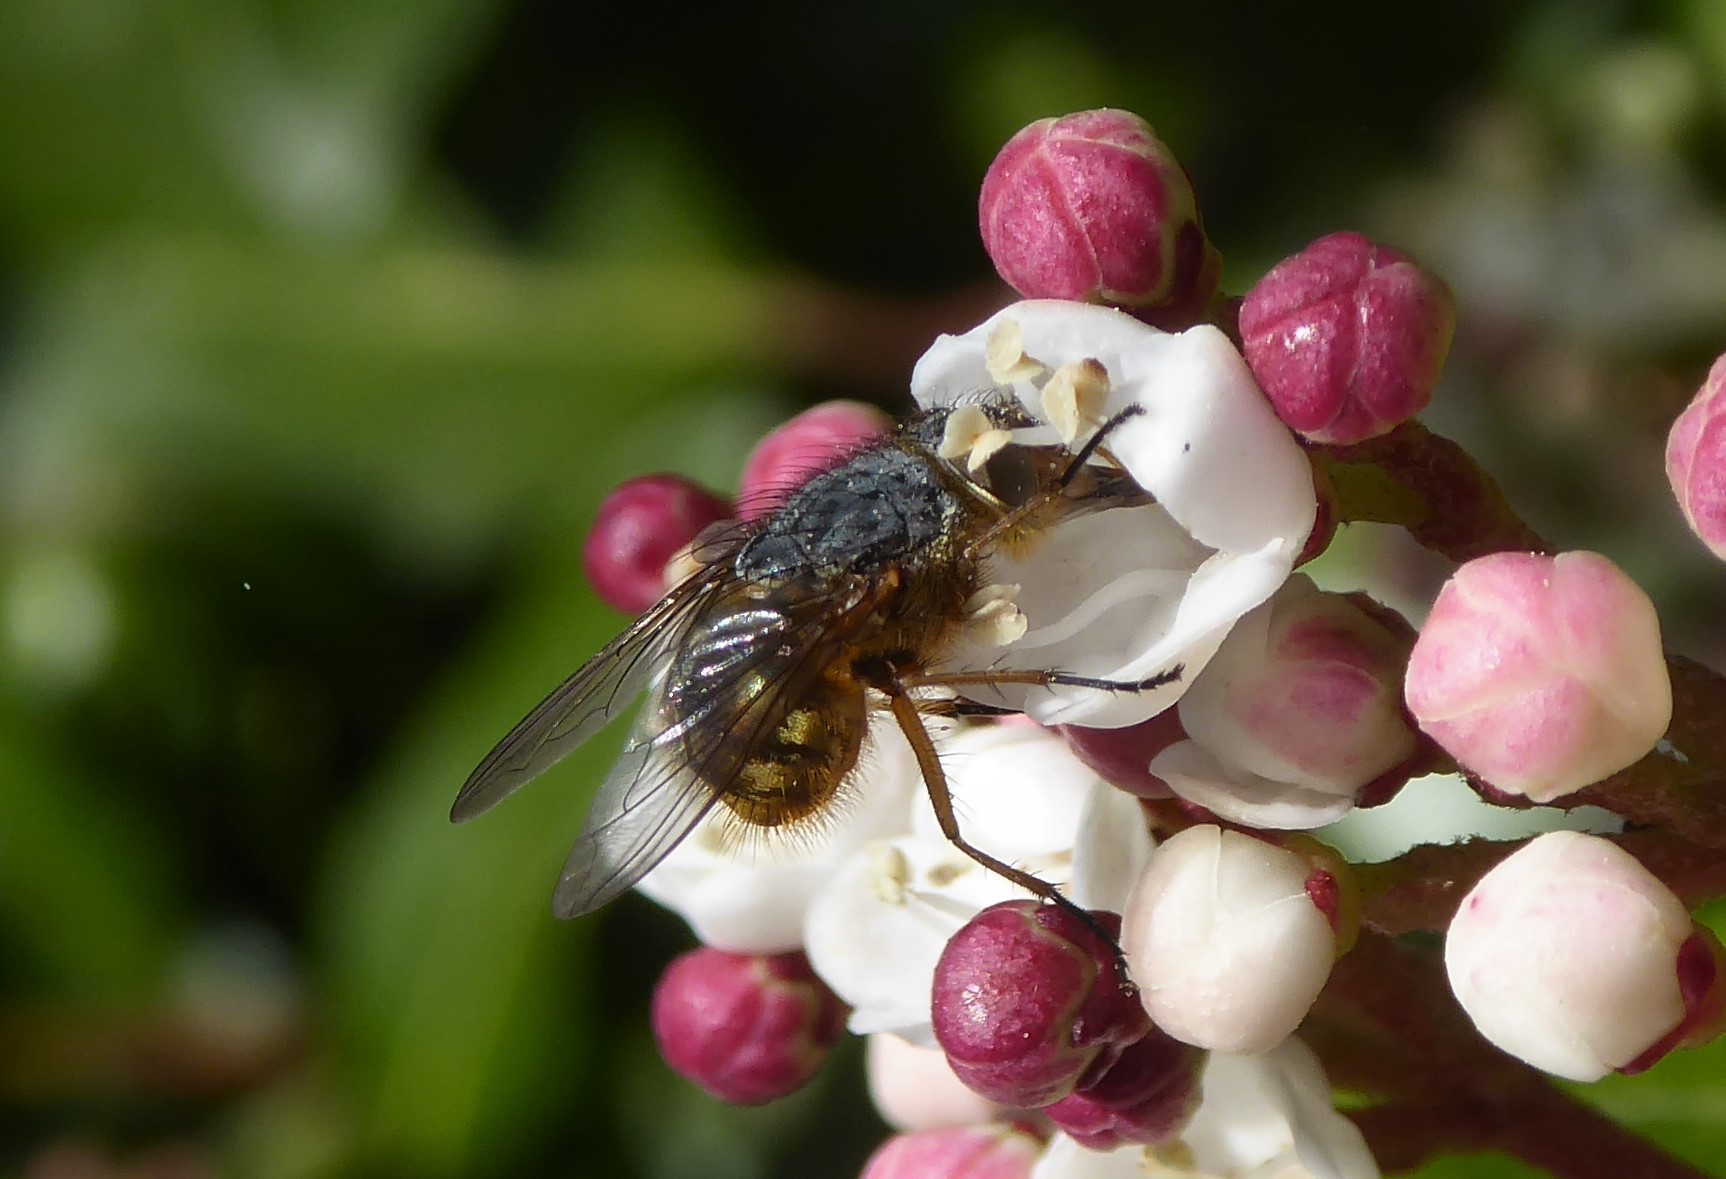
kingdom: Animalia
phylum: Arthropoda
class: Insecta
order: Diptera
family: Calliphoridae
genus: Calliphora
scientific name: Calliphora hilli
